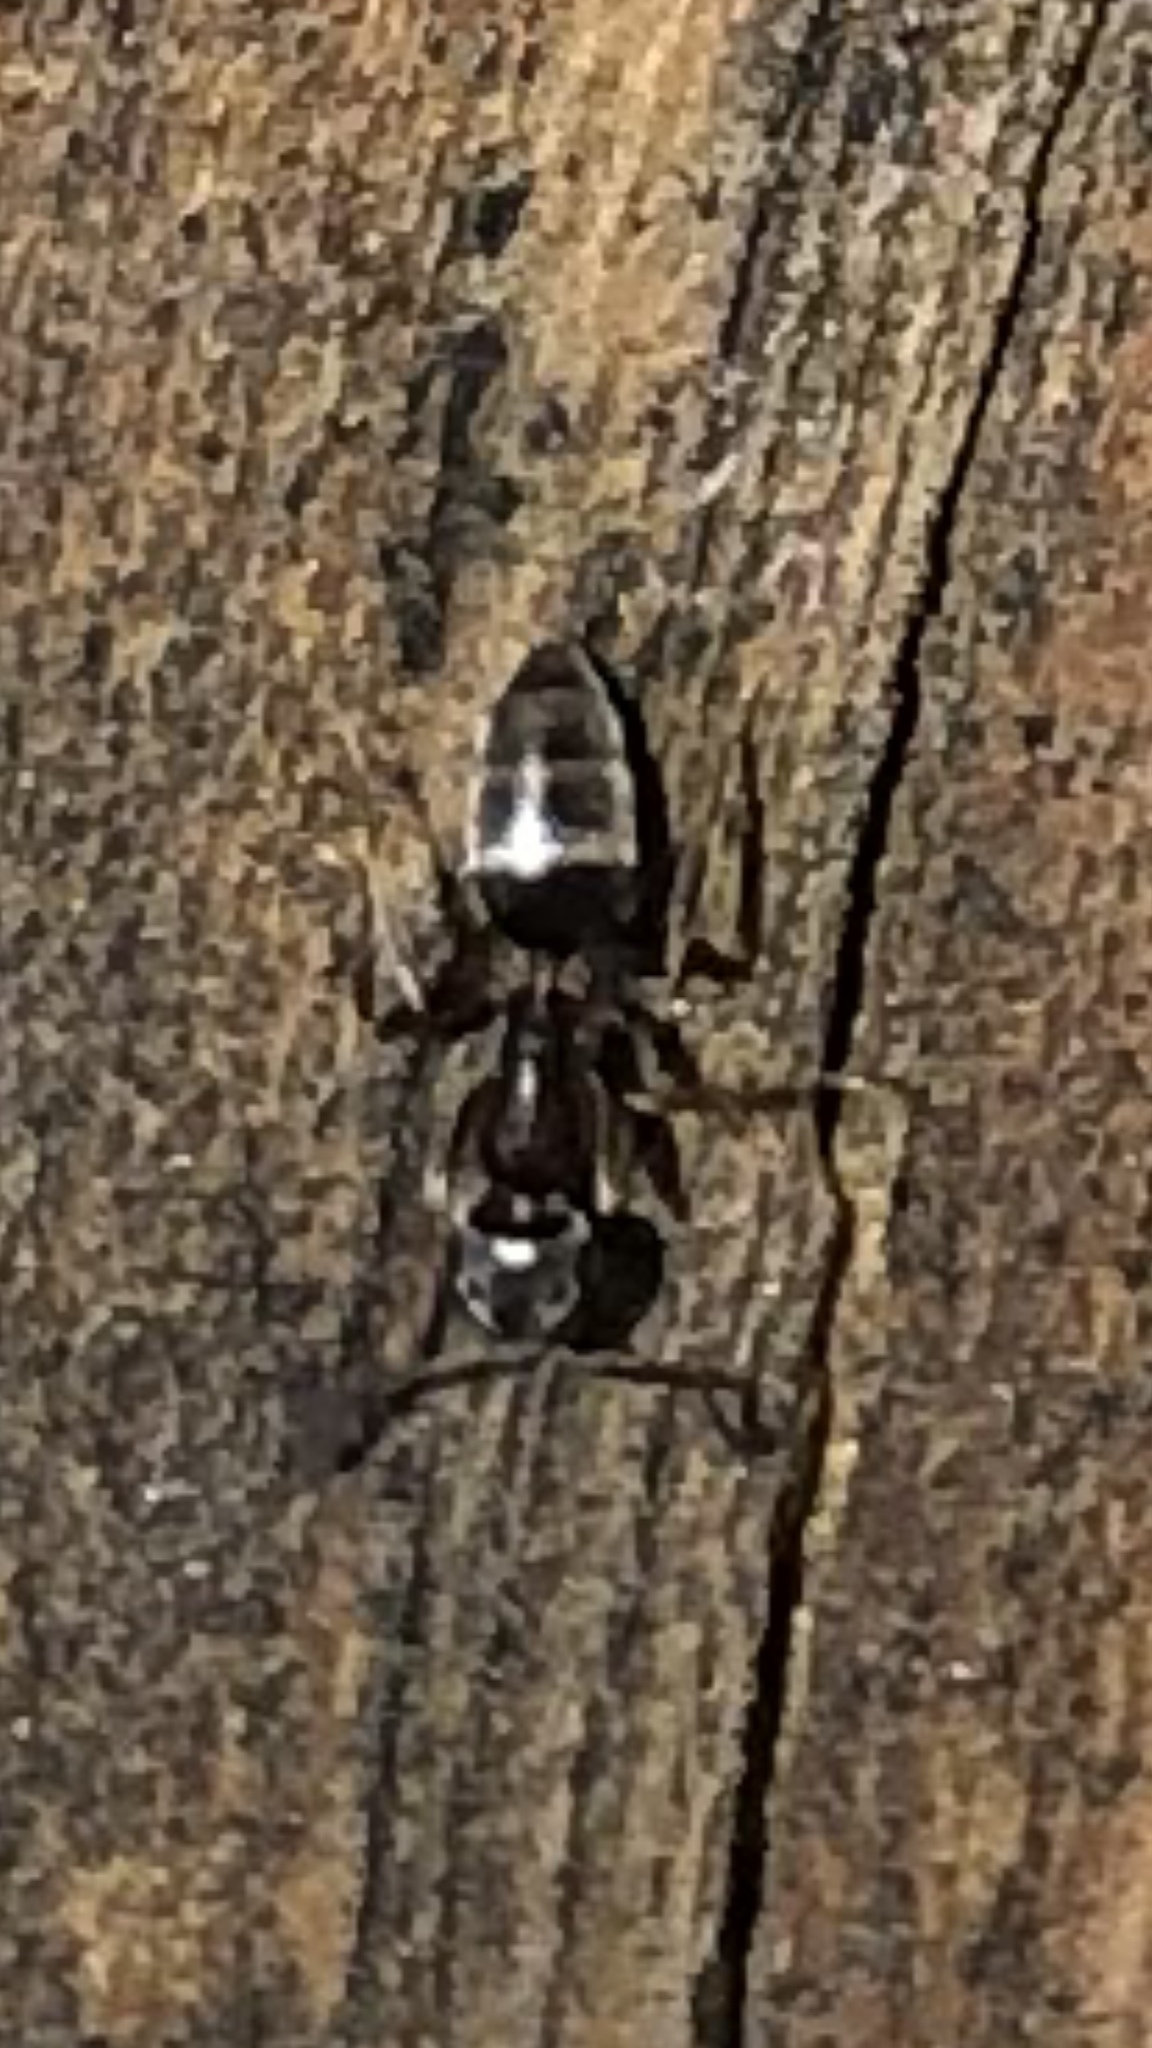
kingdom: Animalia
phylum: Arthropoda
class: Insecta
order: Hymenoptera
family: Formicidae
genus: Tapinoma
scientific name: Tapinoma sessile
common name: Odorous house ant
